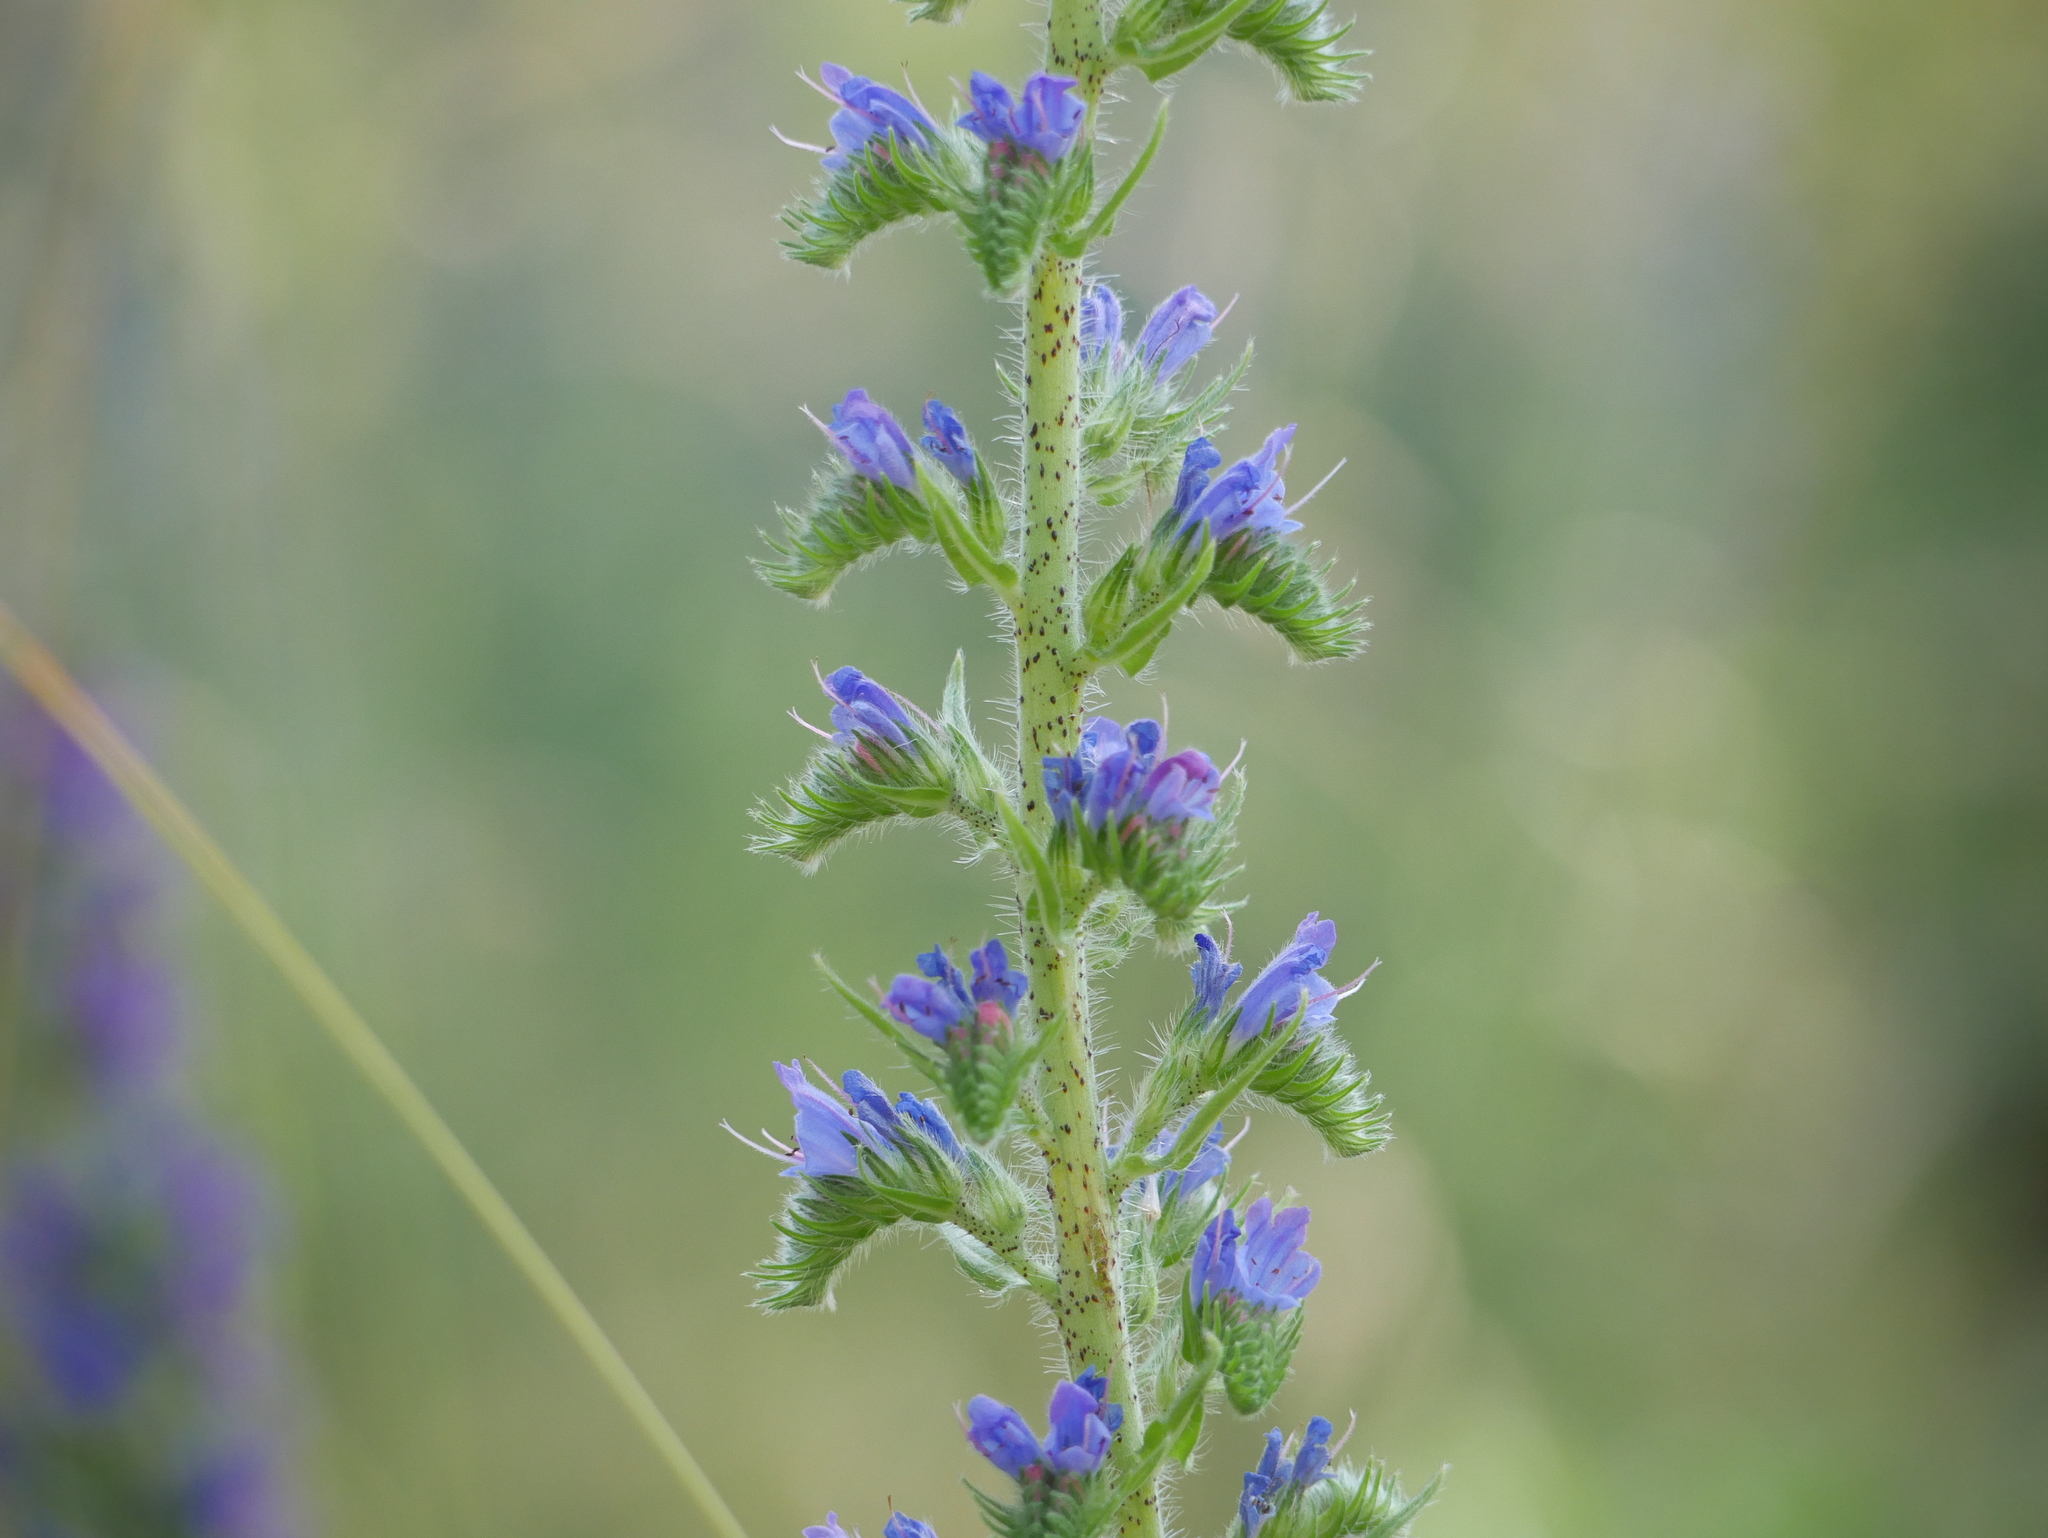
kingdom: Plantae
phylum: Tracheophyta
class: Magnoliopsida
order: Boraginales
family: Boraginaceae
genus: Echium
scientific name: Echium vulgare
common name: Common viper's bugloss
